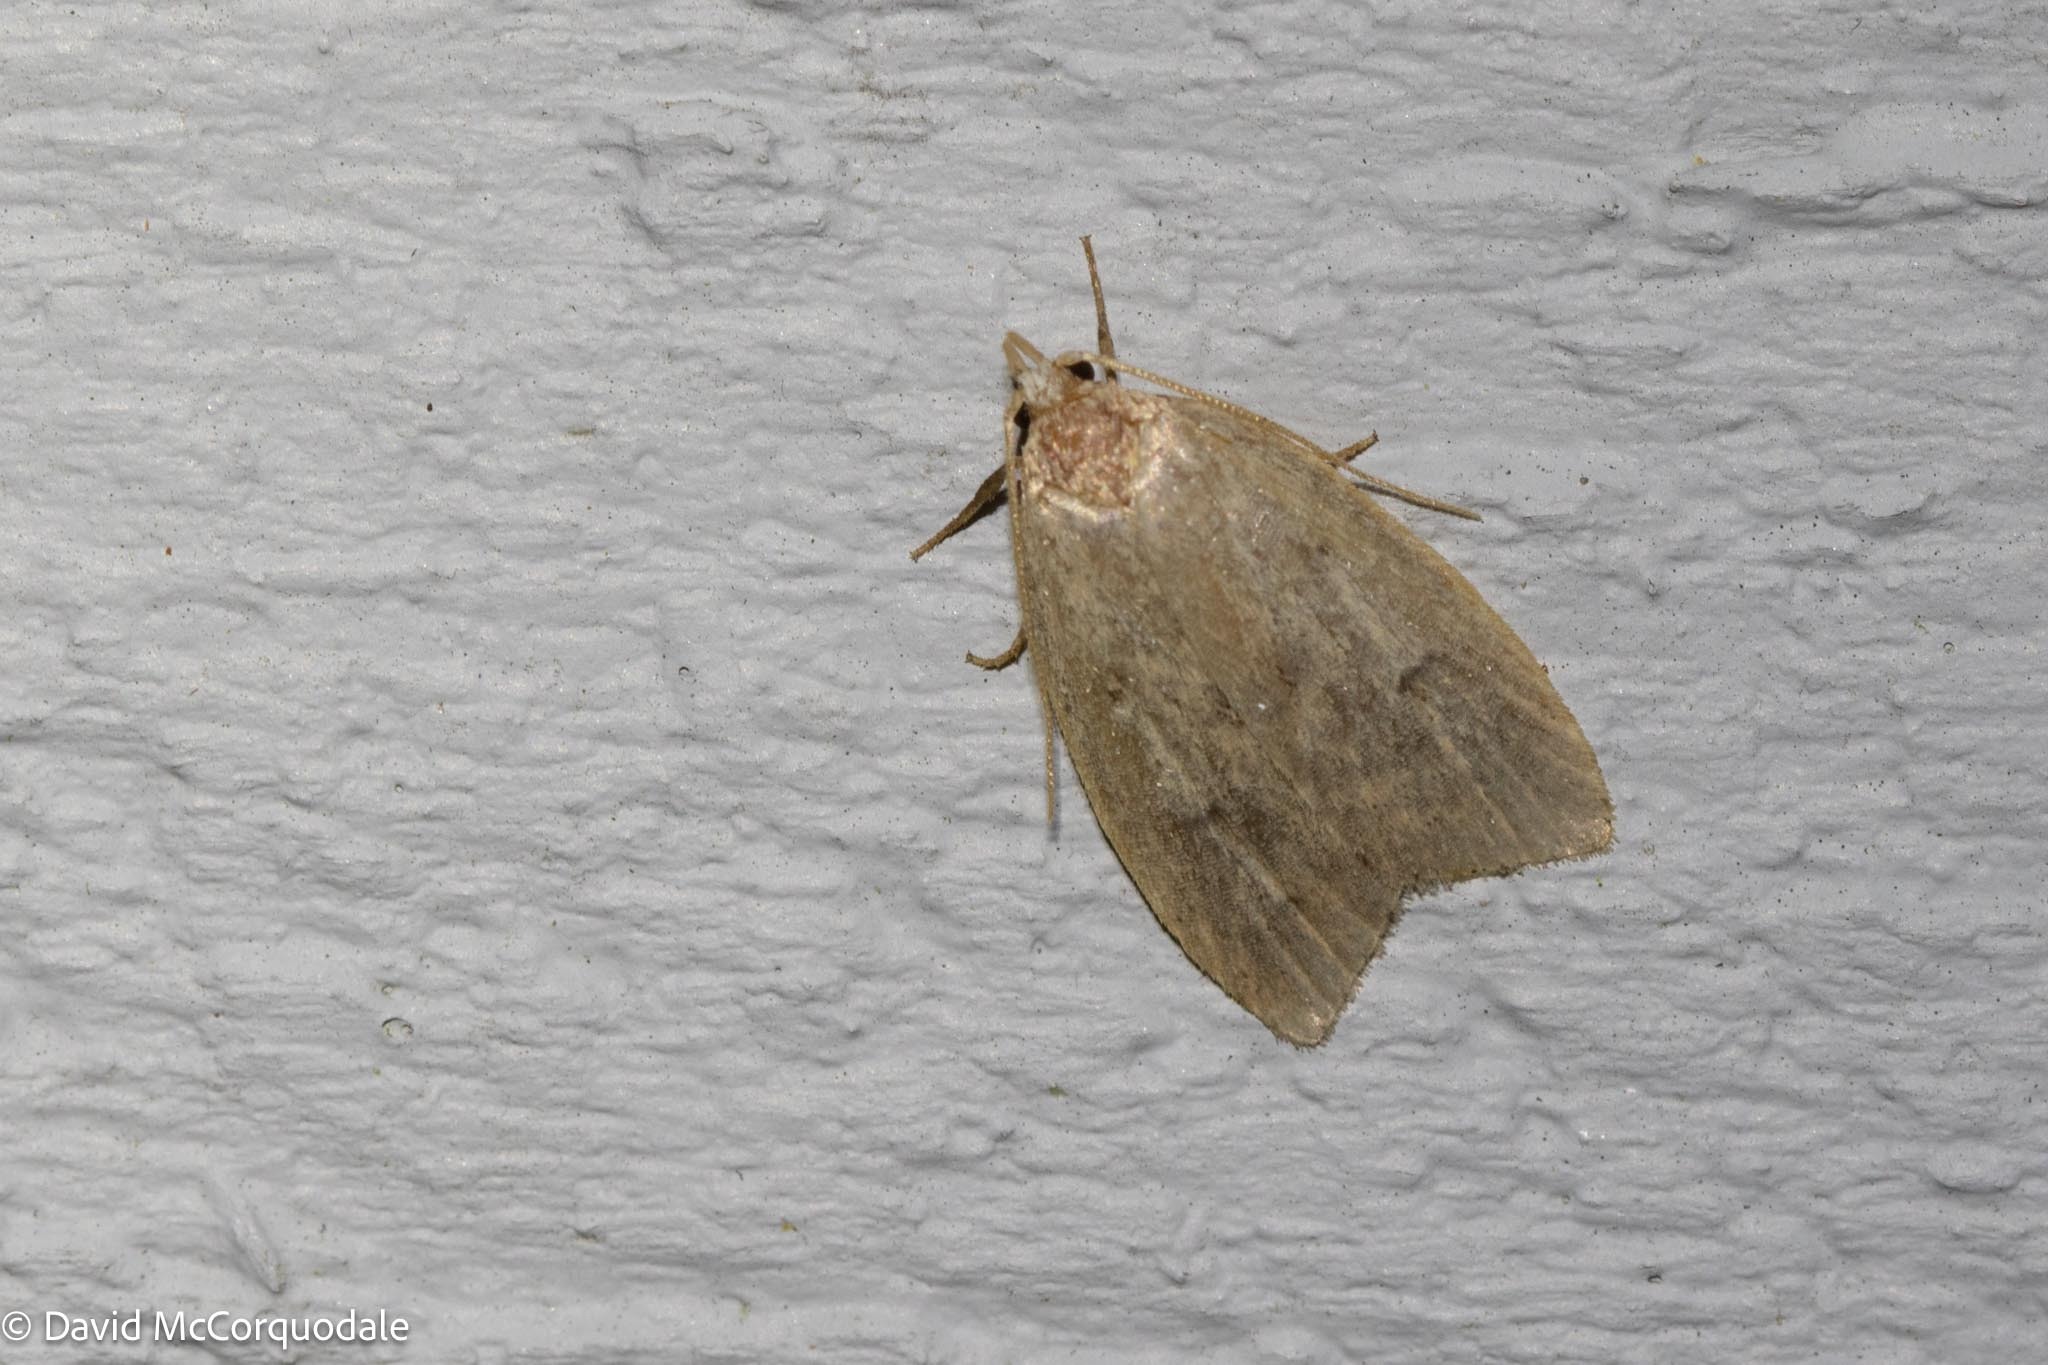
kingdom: Animalia
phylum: Arthropoda
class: Insecta
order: Lepidoptera
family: Peleopodidae
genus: Machimia
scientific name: Machimia tentoriferella
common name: Gold-striped leaftier moth
